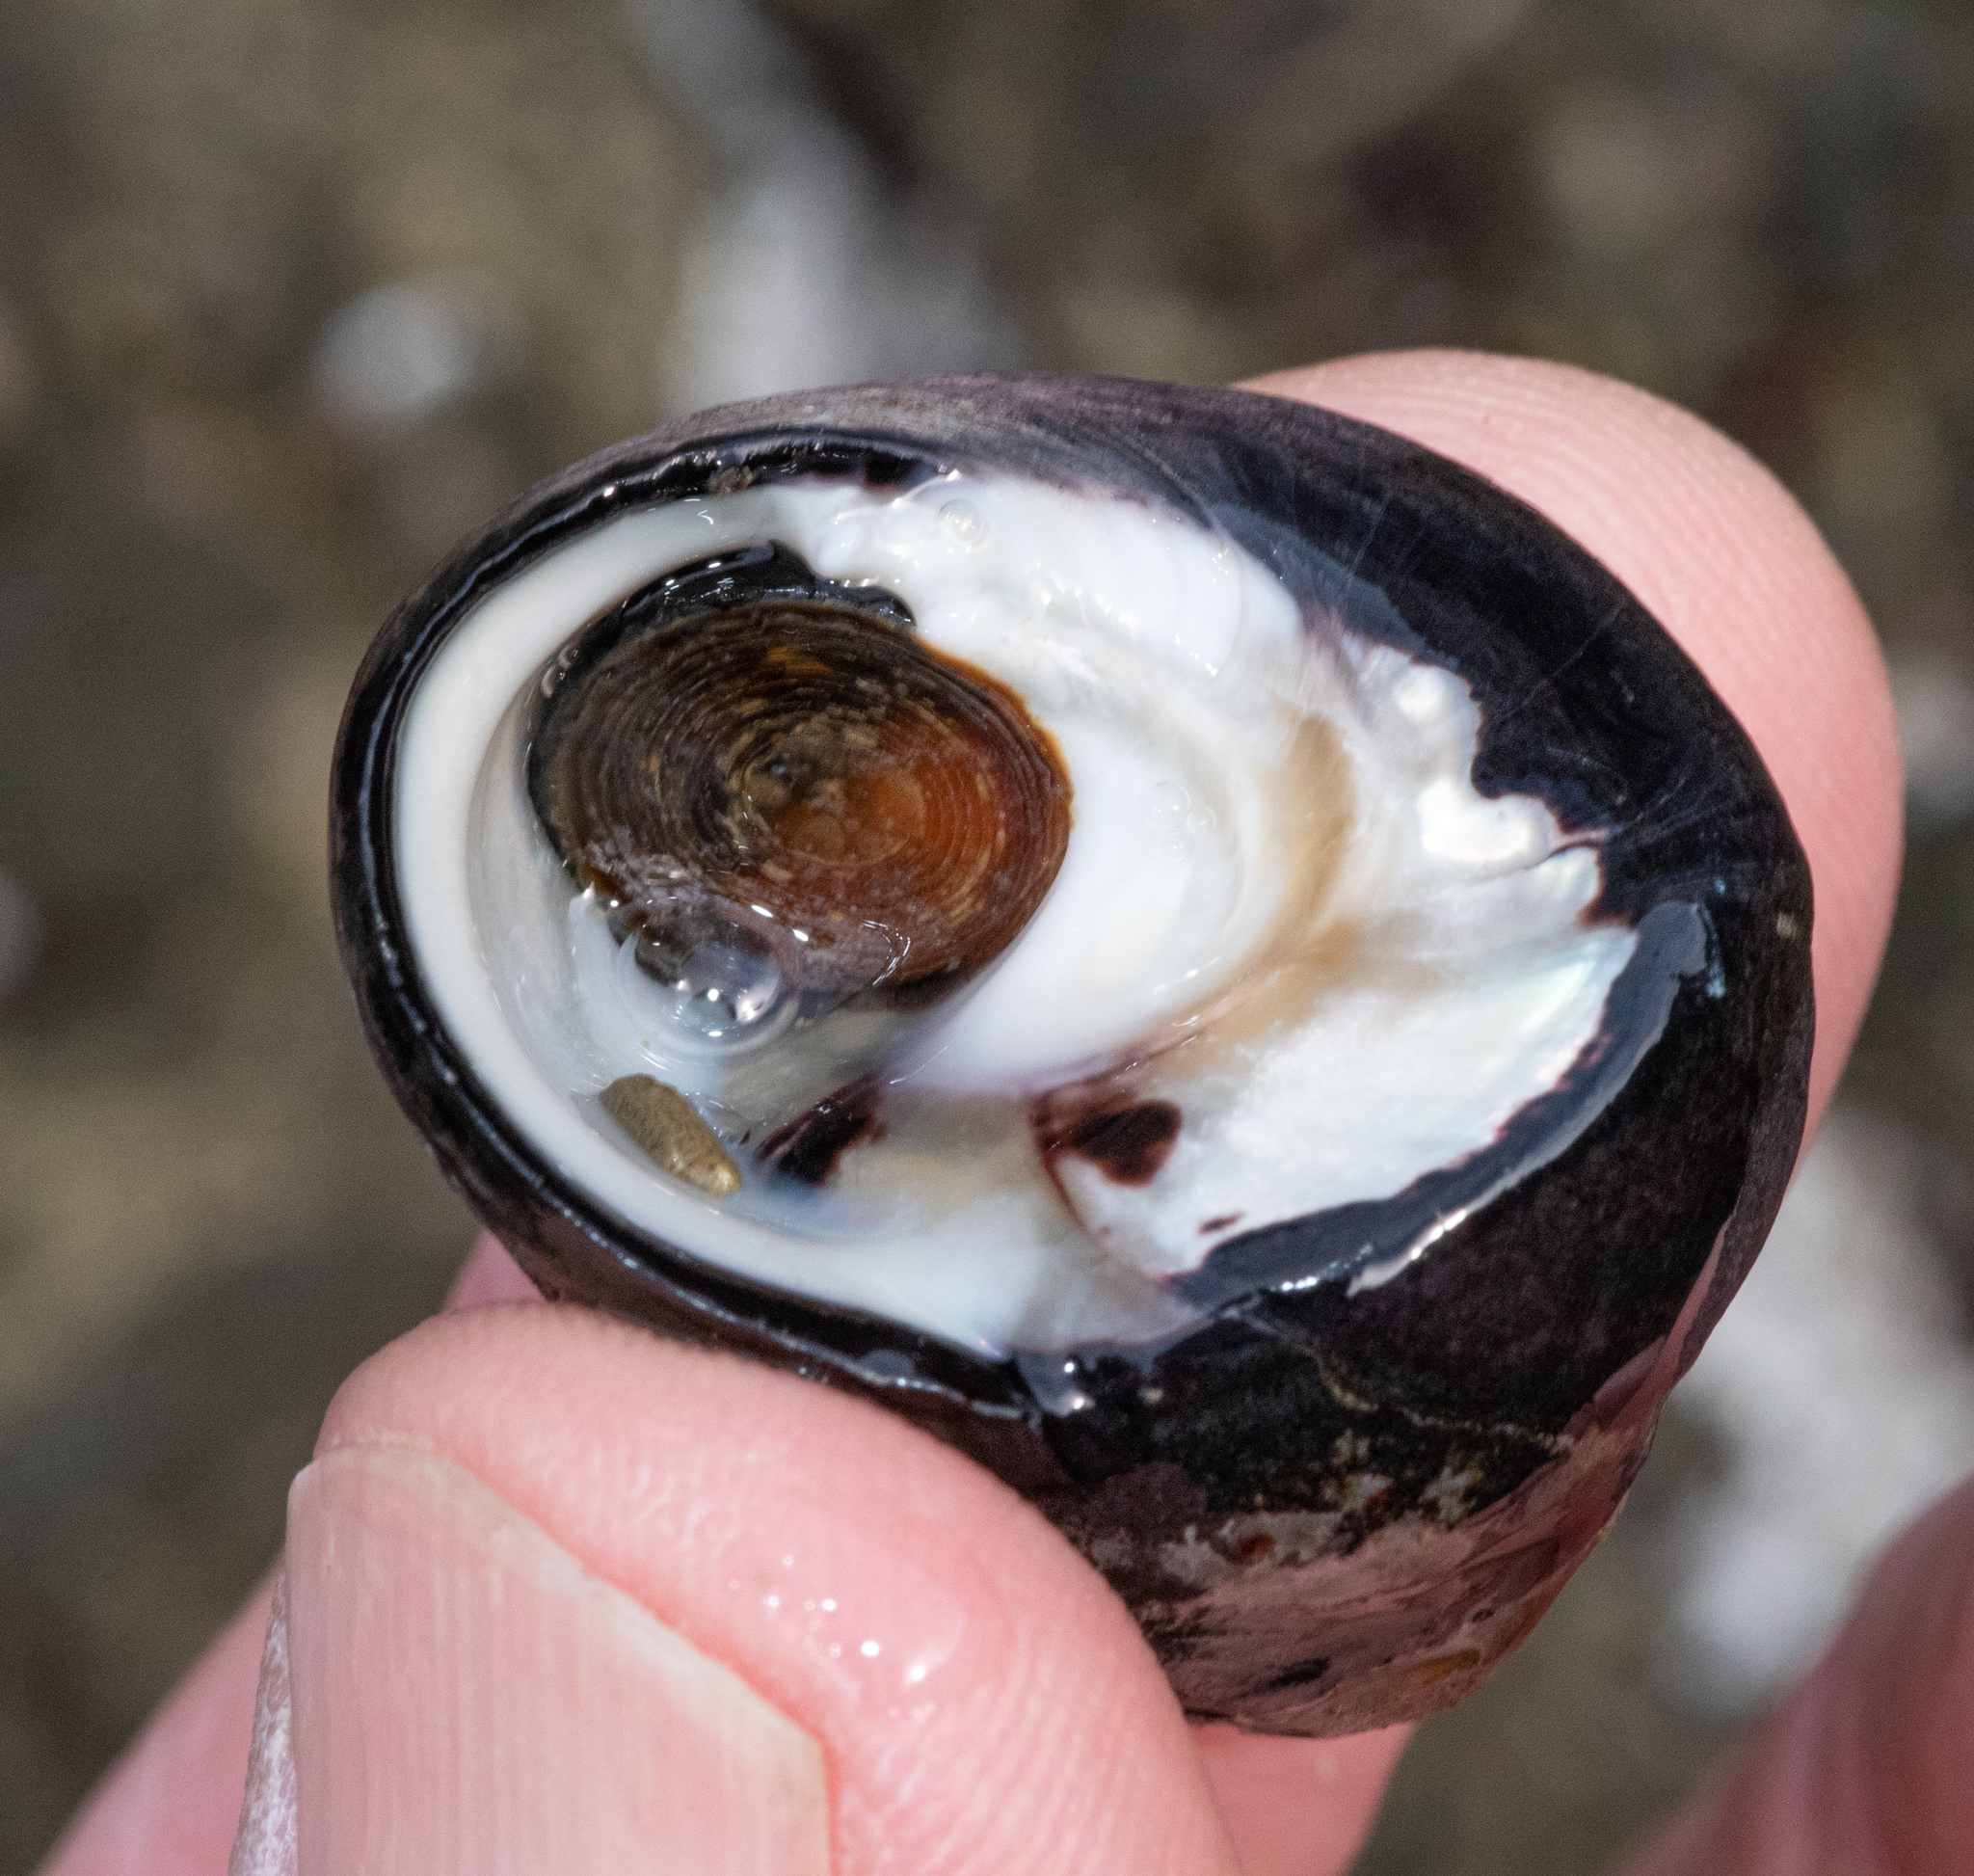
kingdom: Animalia
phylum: Mollusca
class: Gastropoda
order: Trochida
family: Tegulidae
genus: Tegula
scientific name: Tegula funebralis
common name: Black tegula
